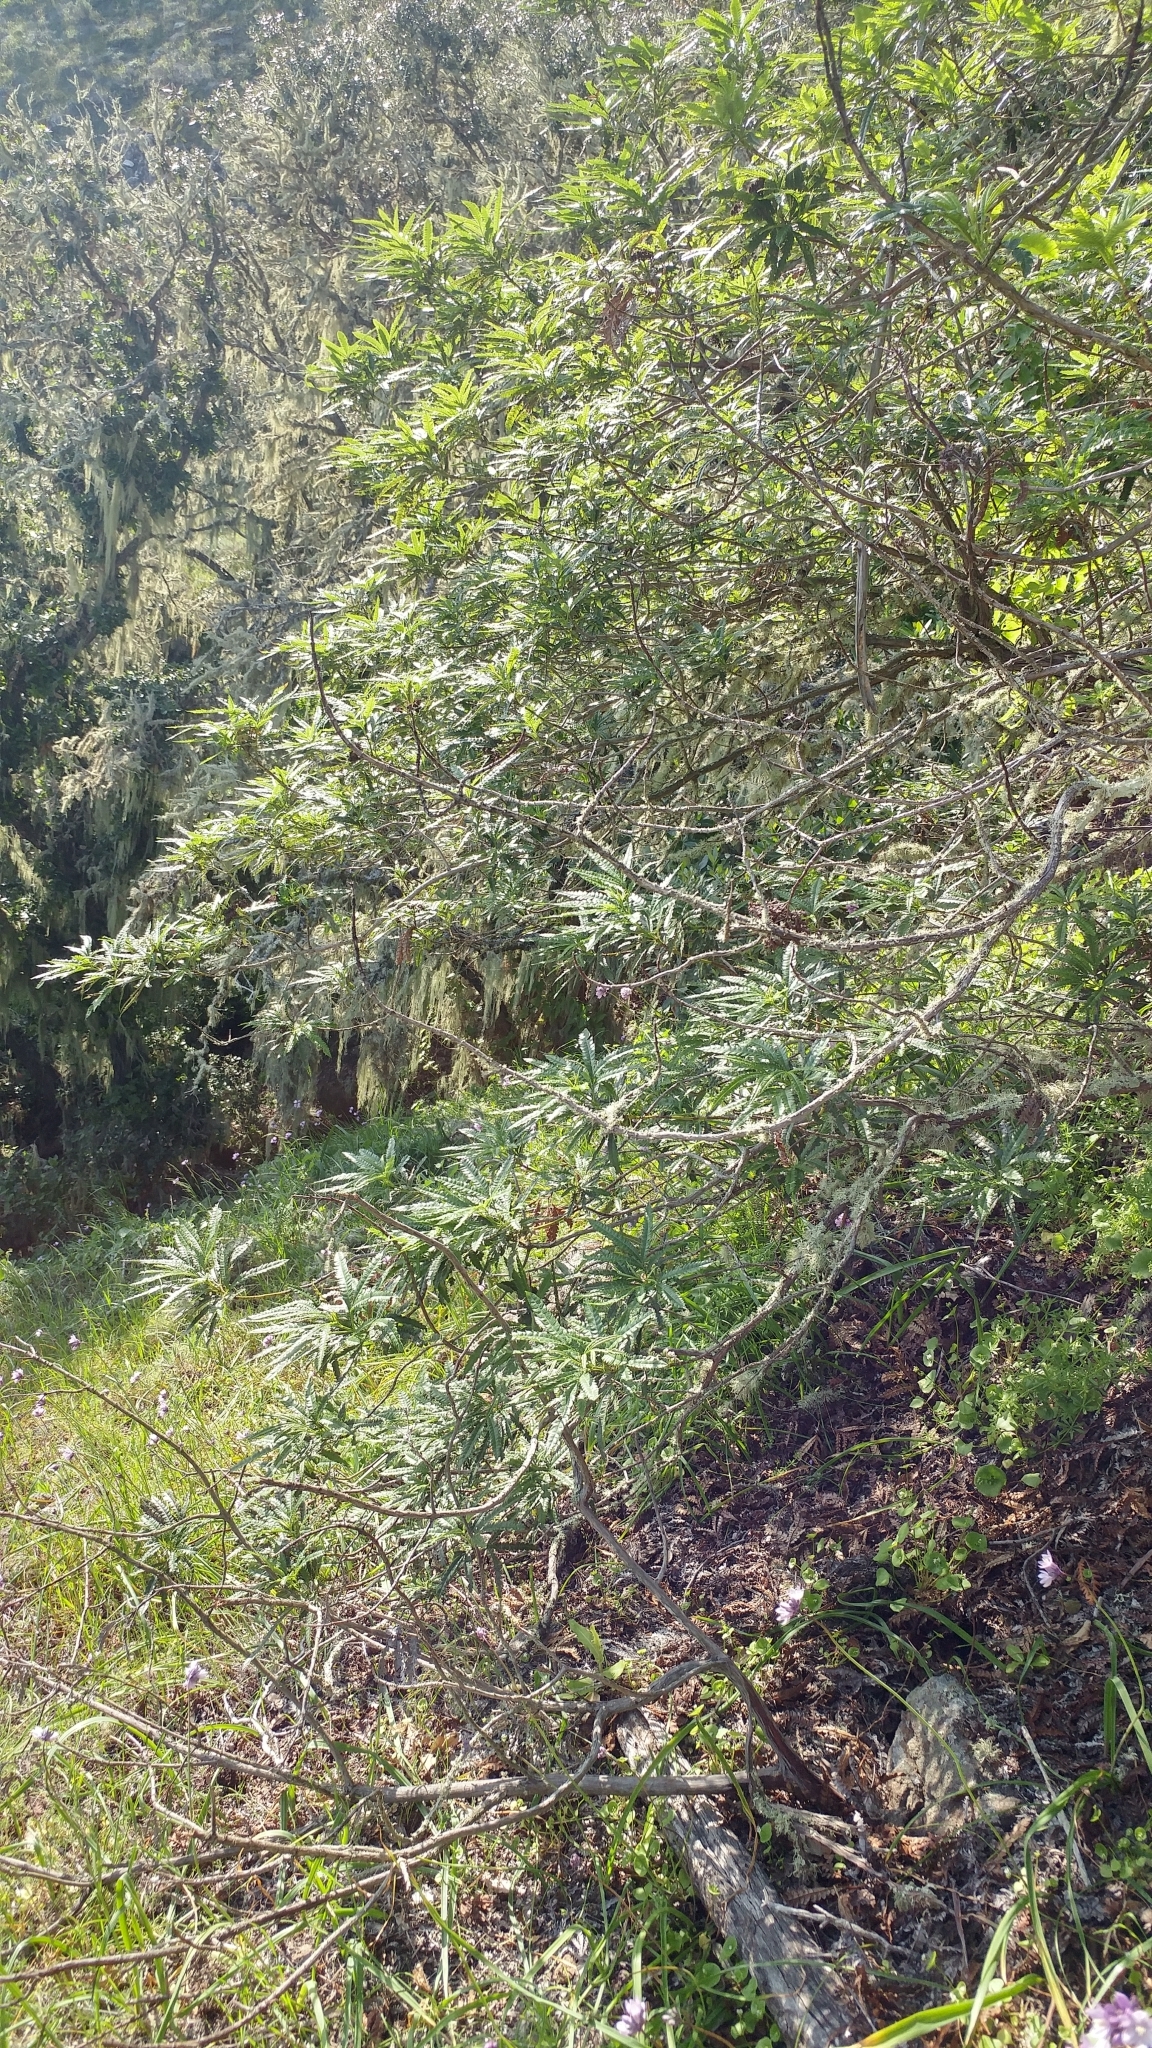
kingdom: Plantae
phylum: Tracheophyta
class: Magnoliopsida
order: Rosales
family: Rosaceae
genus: Lyonothamnus
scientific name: Lyonothamnus floribundus
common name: Catalina ironwood
